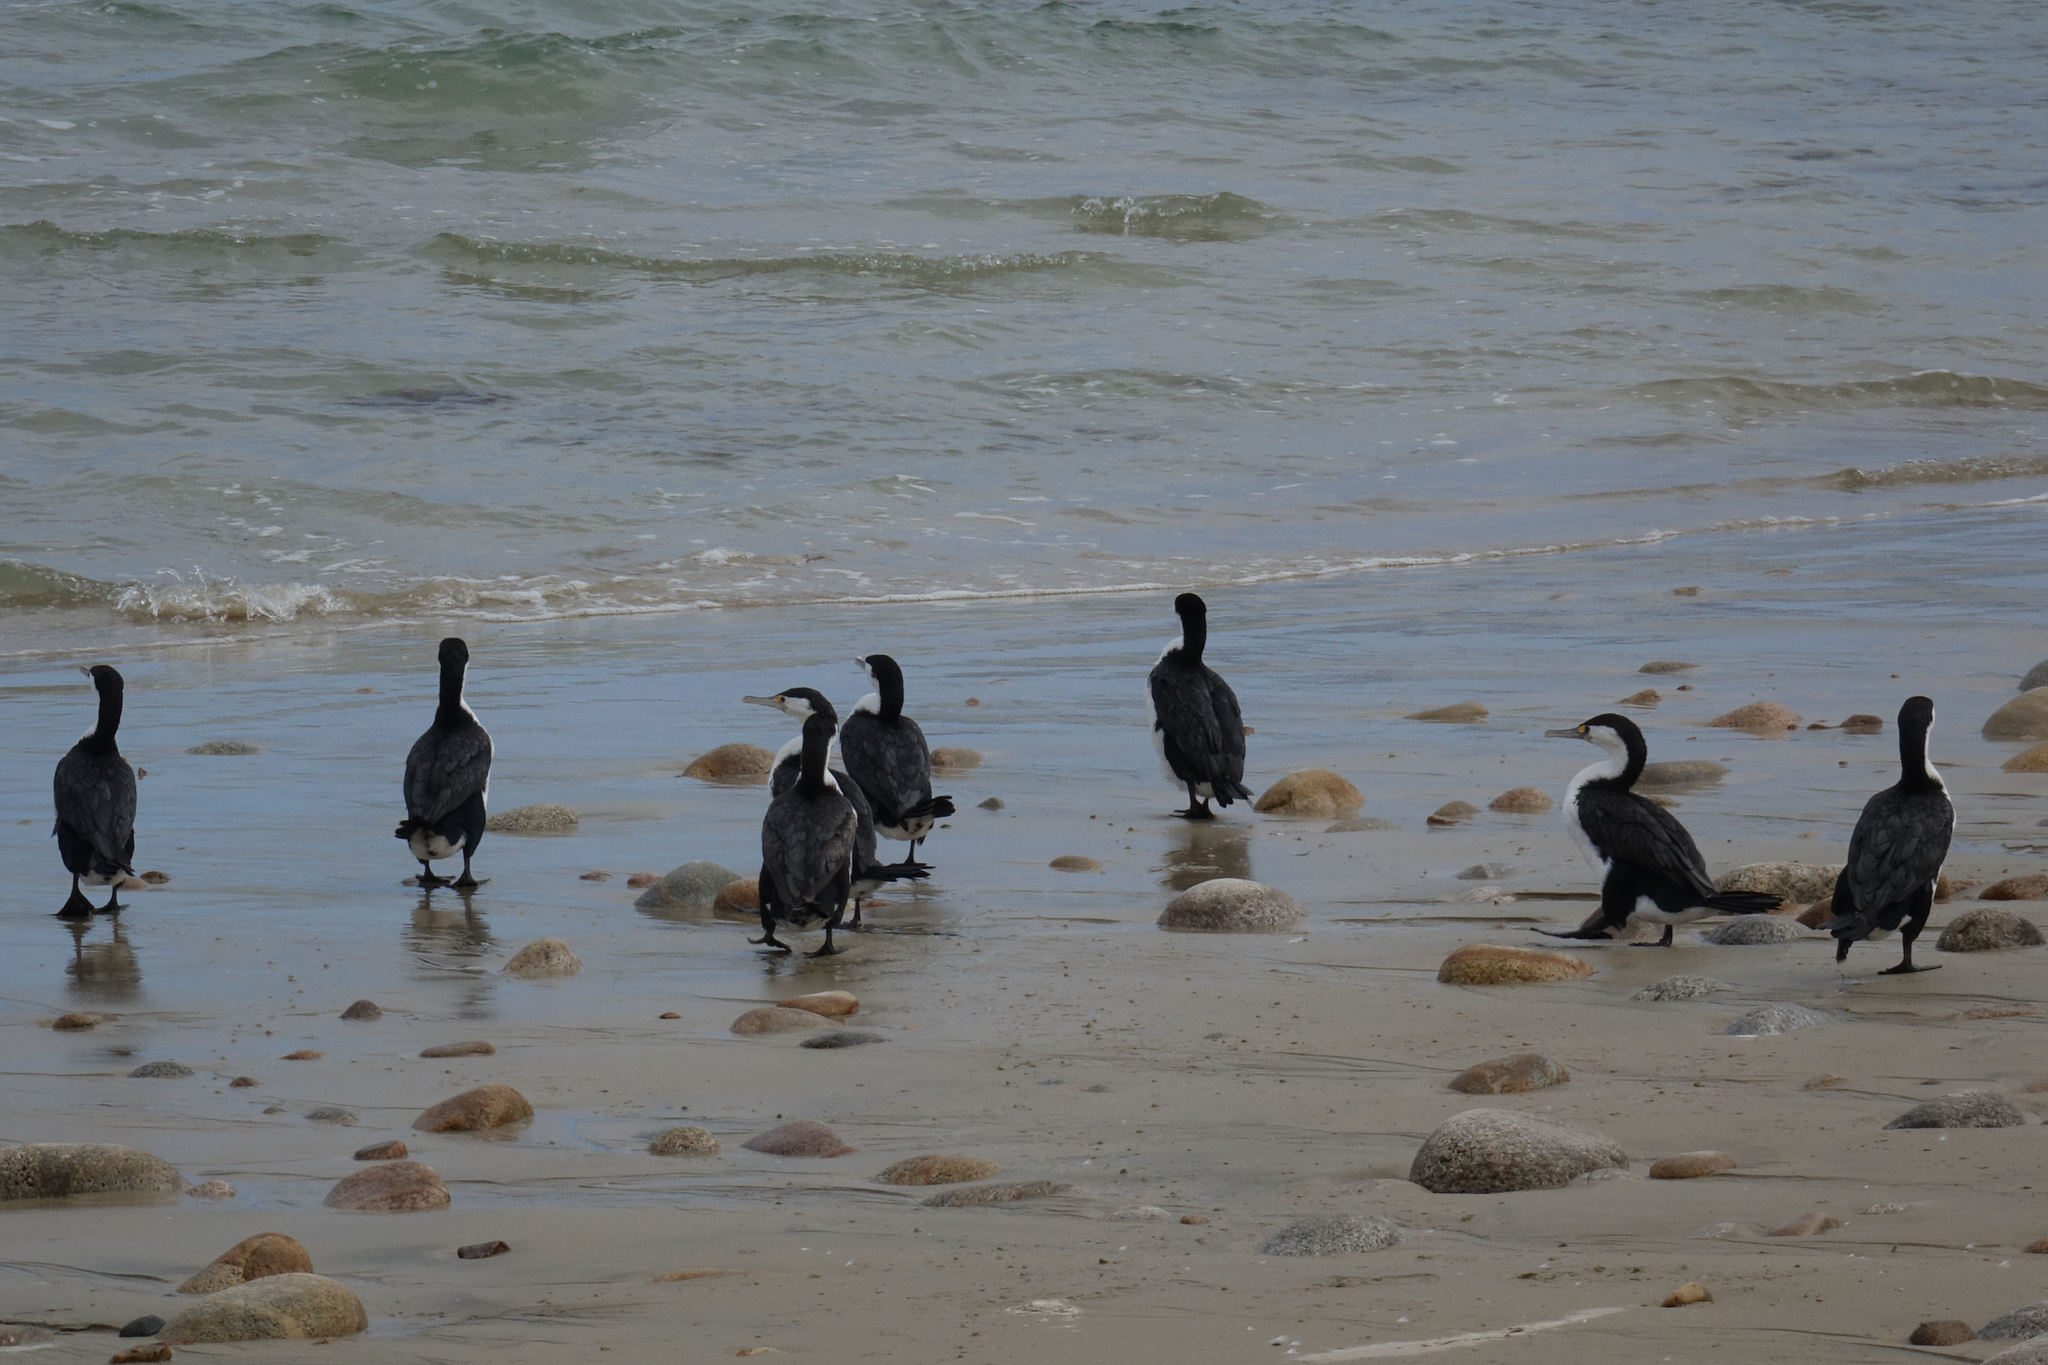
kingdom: Animalia
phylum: Chordata
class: Aves
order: Suliformes
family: Phalacrocoracidae
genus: Phalacrocorax
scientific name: Phalacrocorax varius
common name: Pied cormorant
